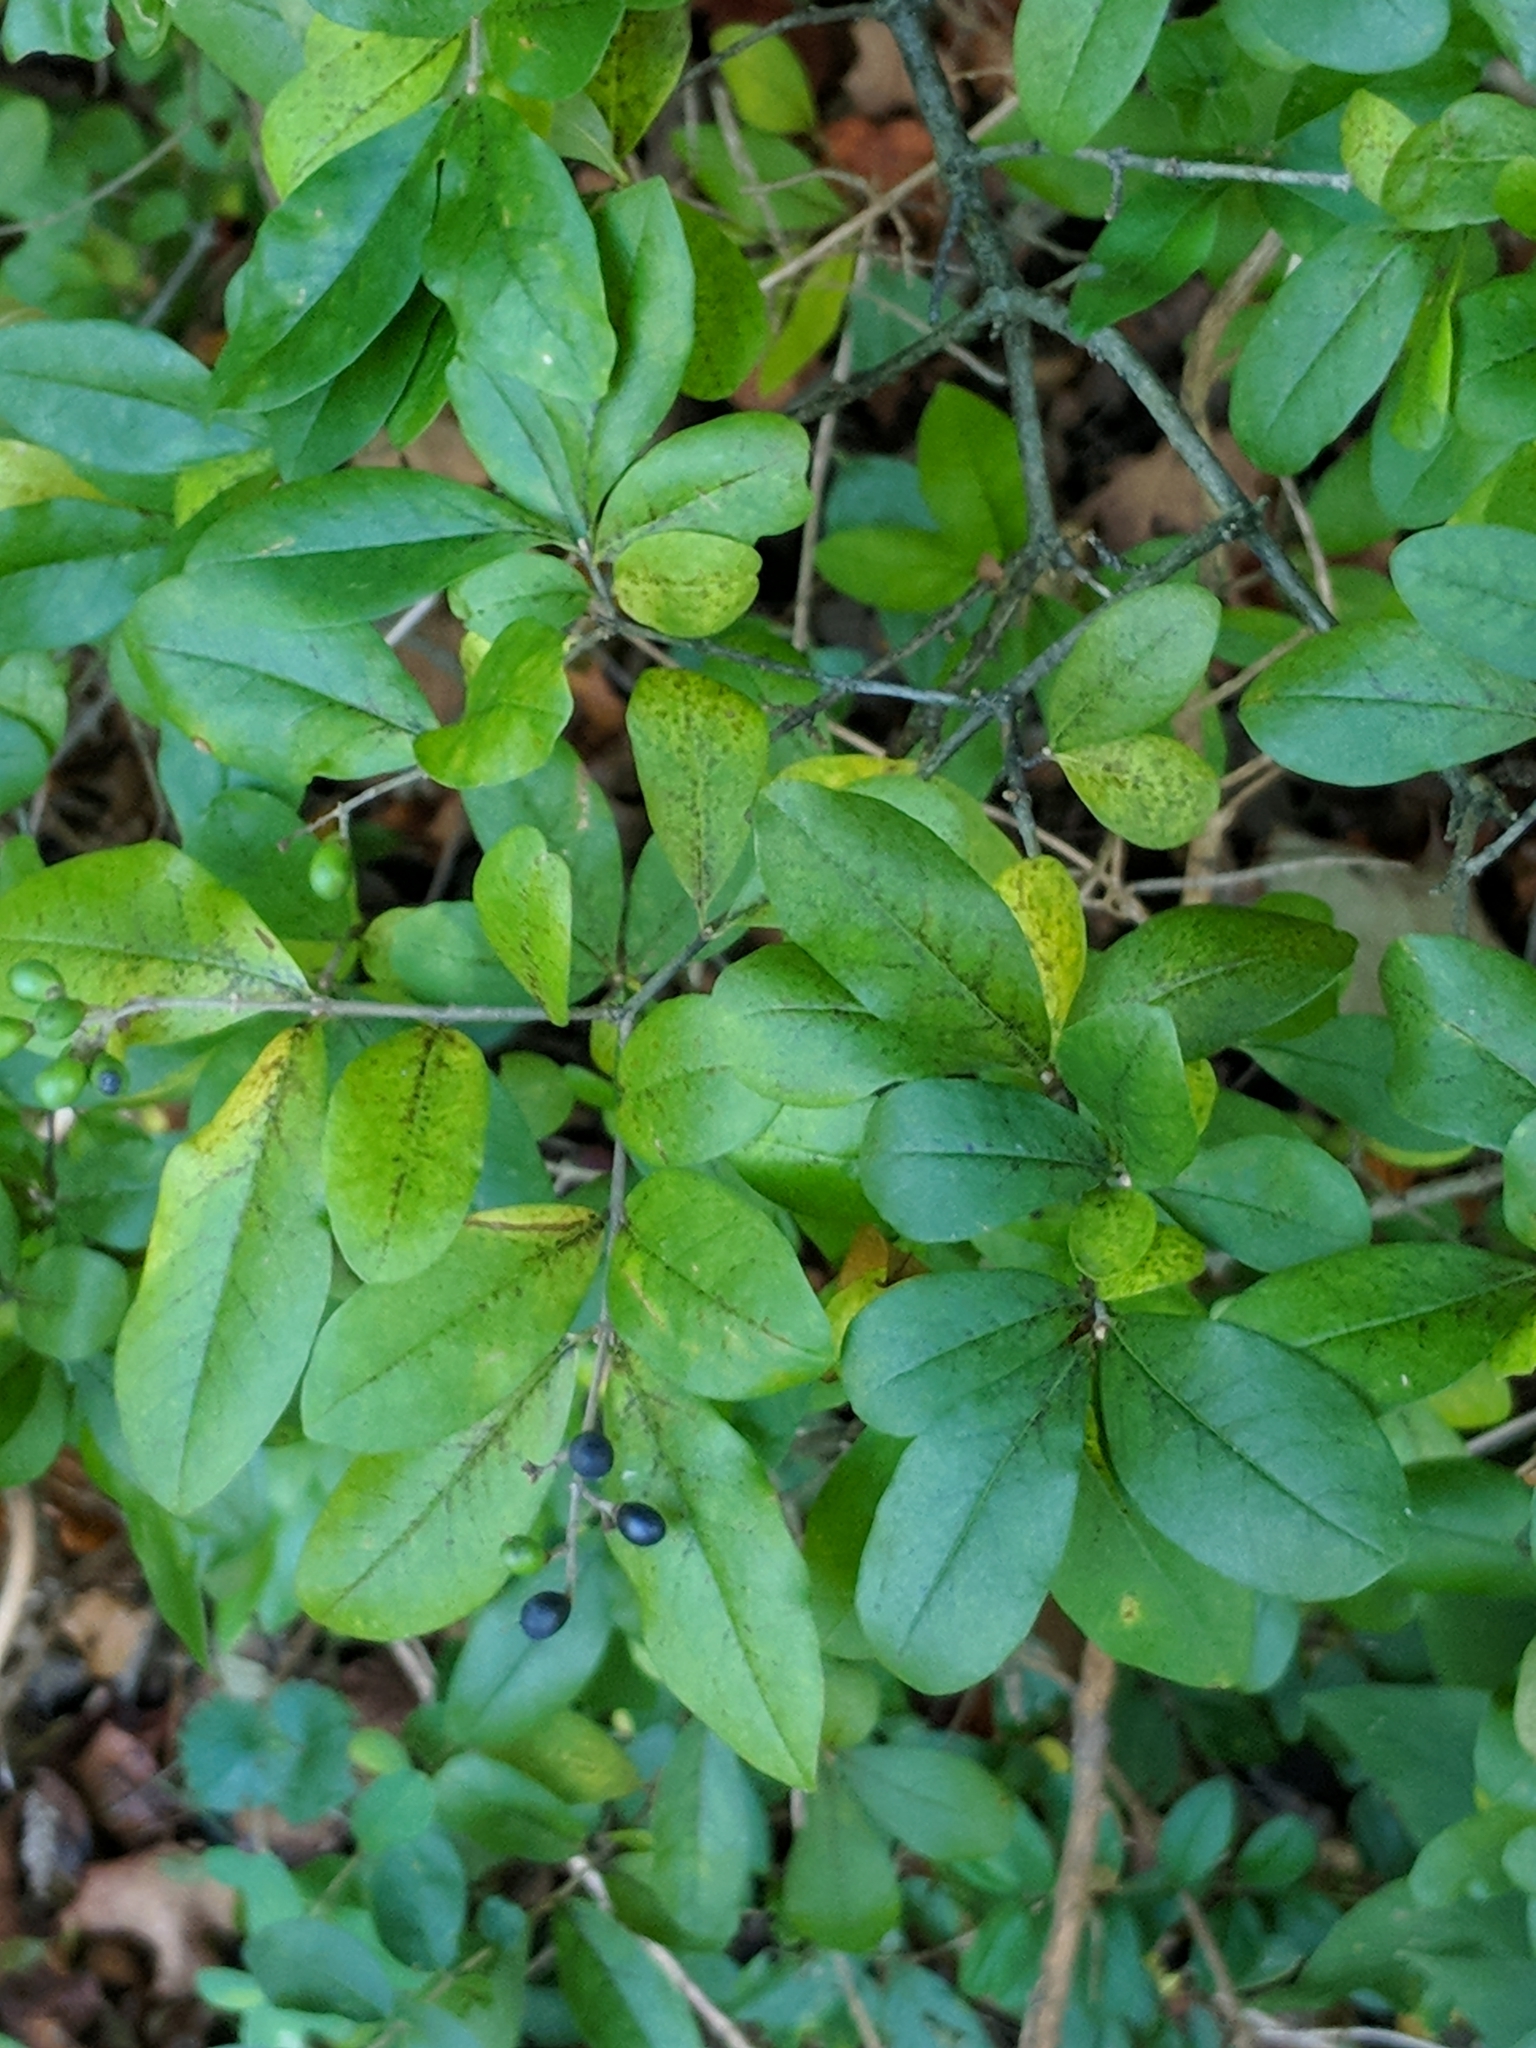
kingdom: Plantae
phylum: Tracheophyta
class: Magnoliopsida
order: Lamiales
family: Oleaceae
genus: Ligustrum
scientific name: Ligustrum obtusifolium
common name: Border privet
